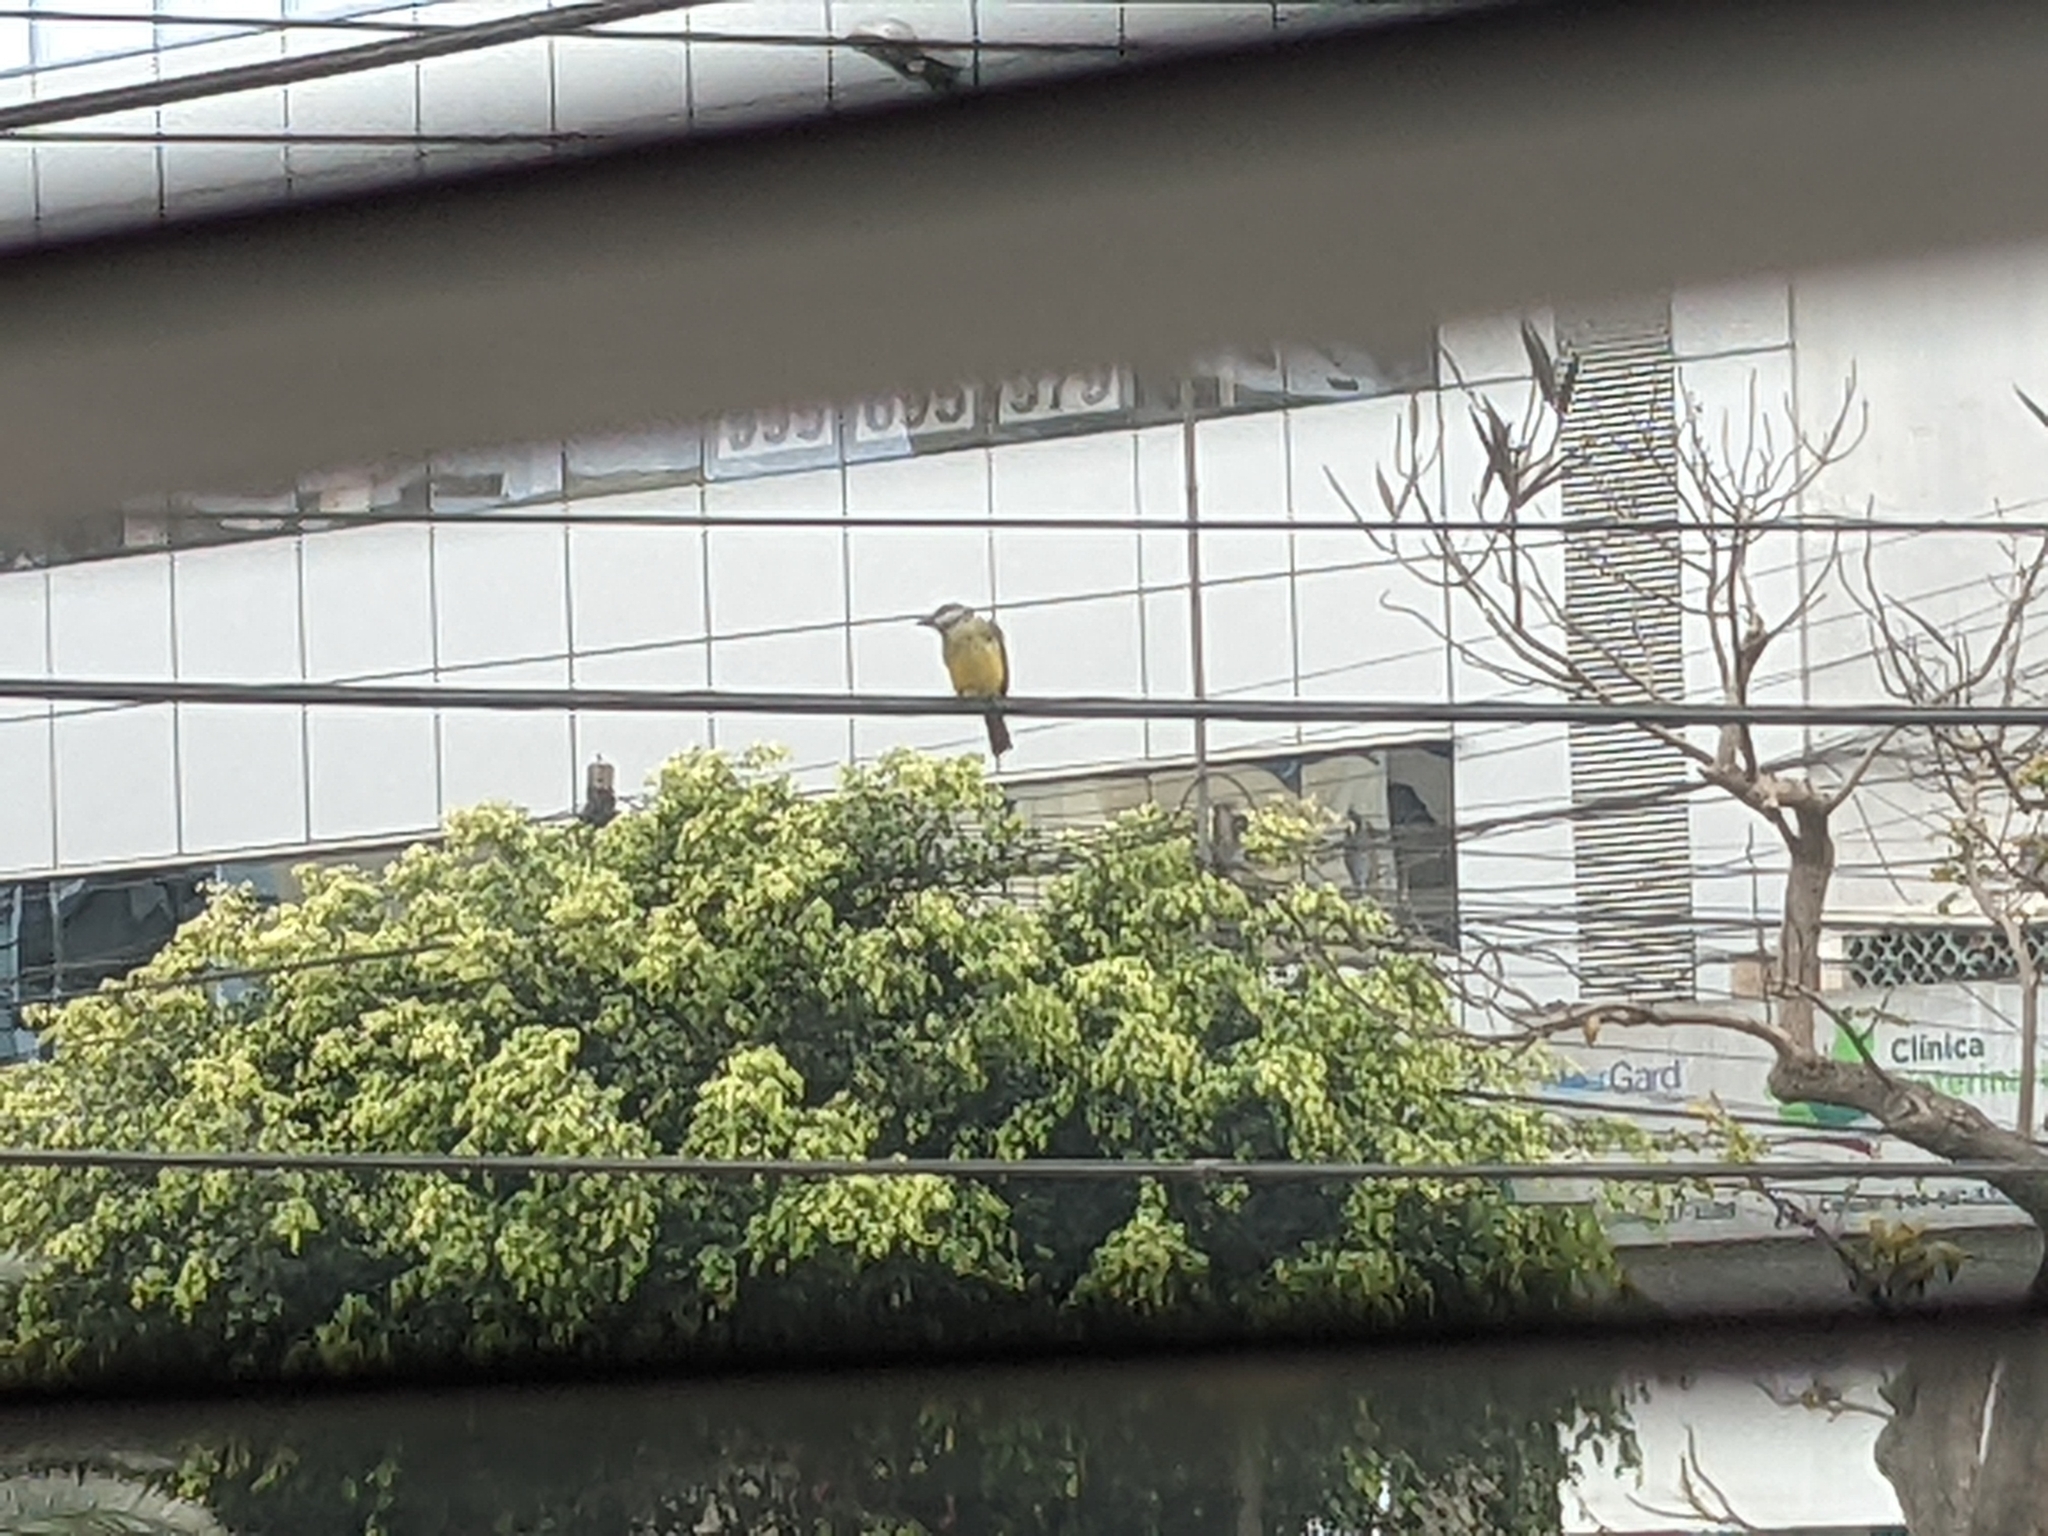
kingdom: Animalia
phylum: Chordata
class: Aves
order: Passeriformes
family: Tyrannidae
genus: Tyrannus
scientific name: Tyrannus melancholicus
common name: Tropical kingbird
